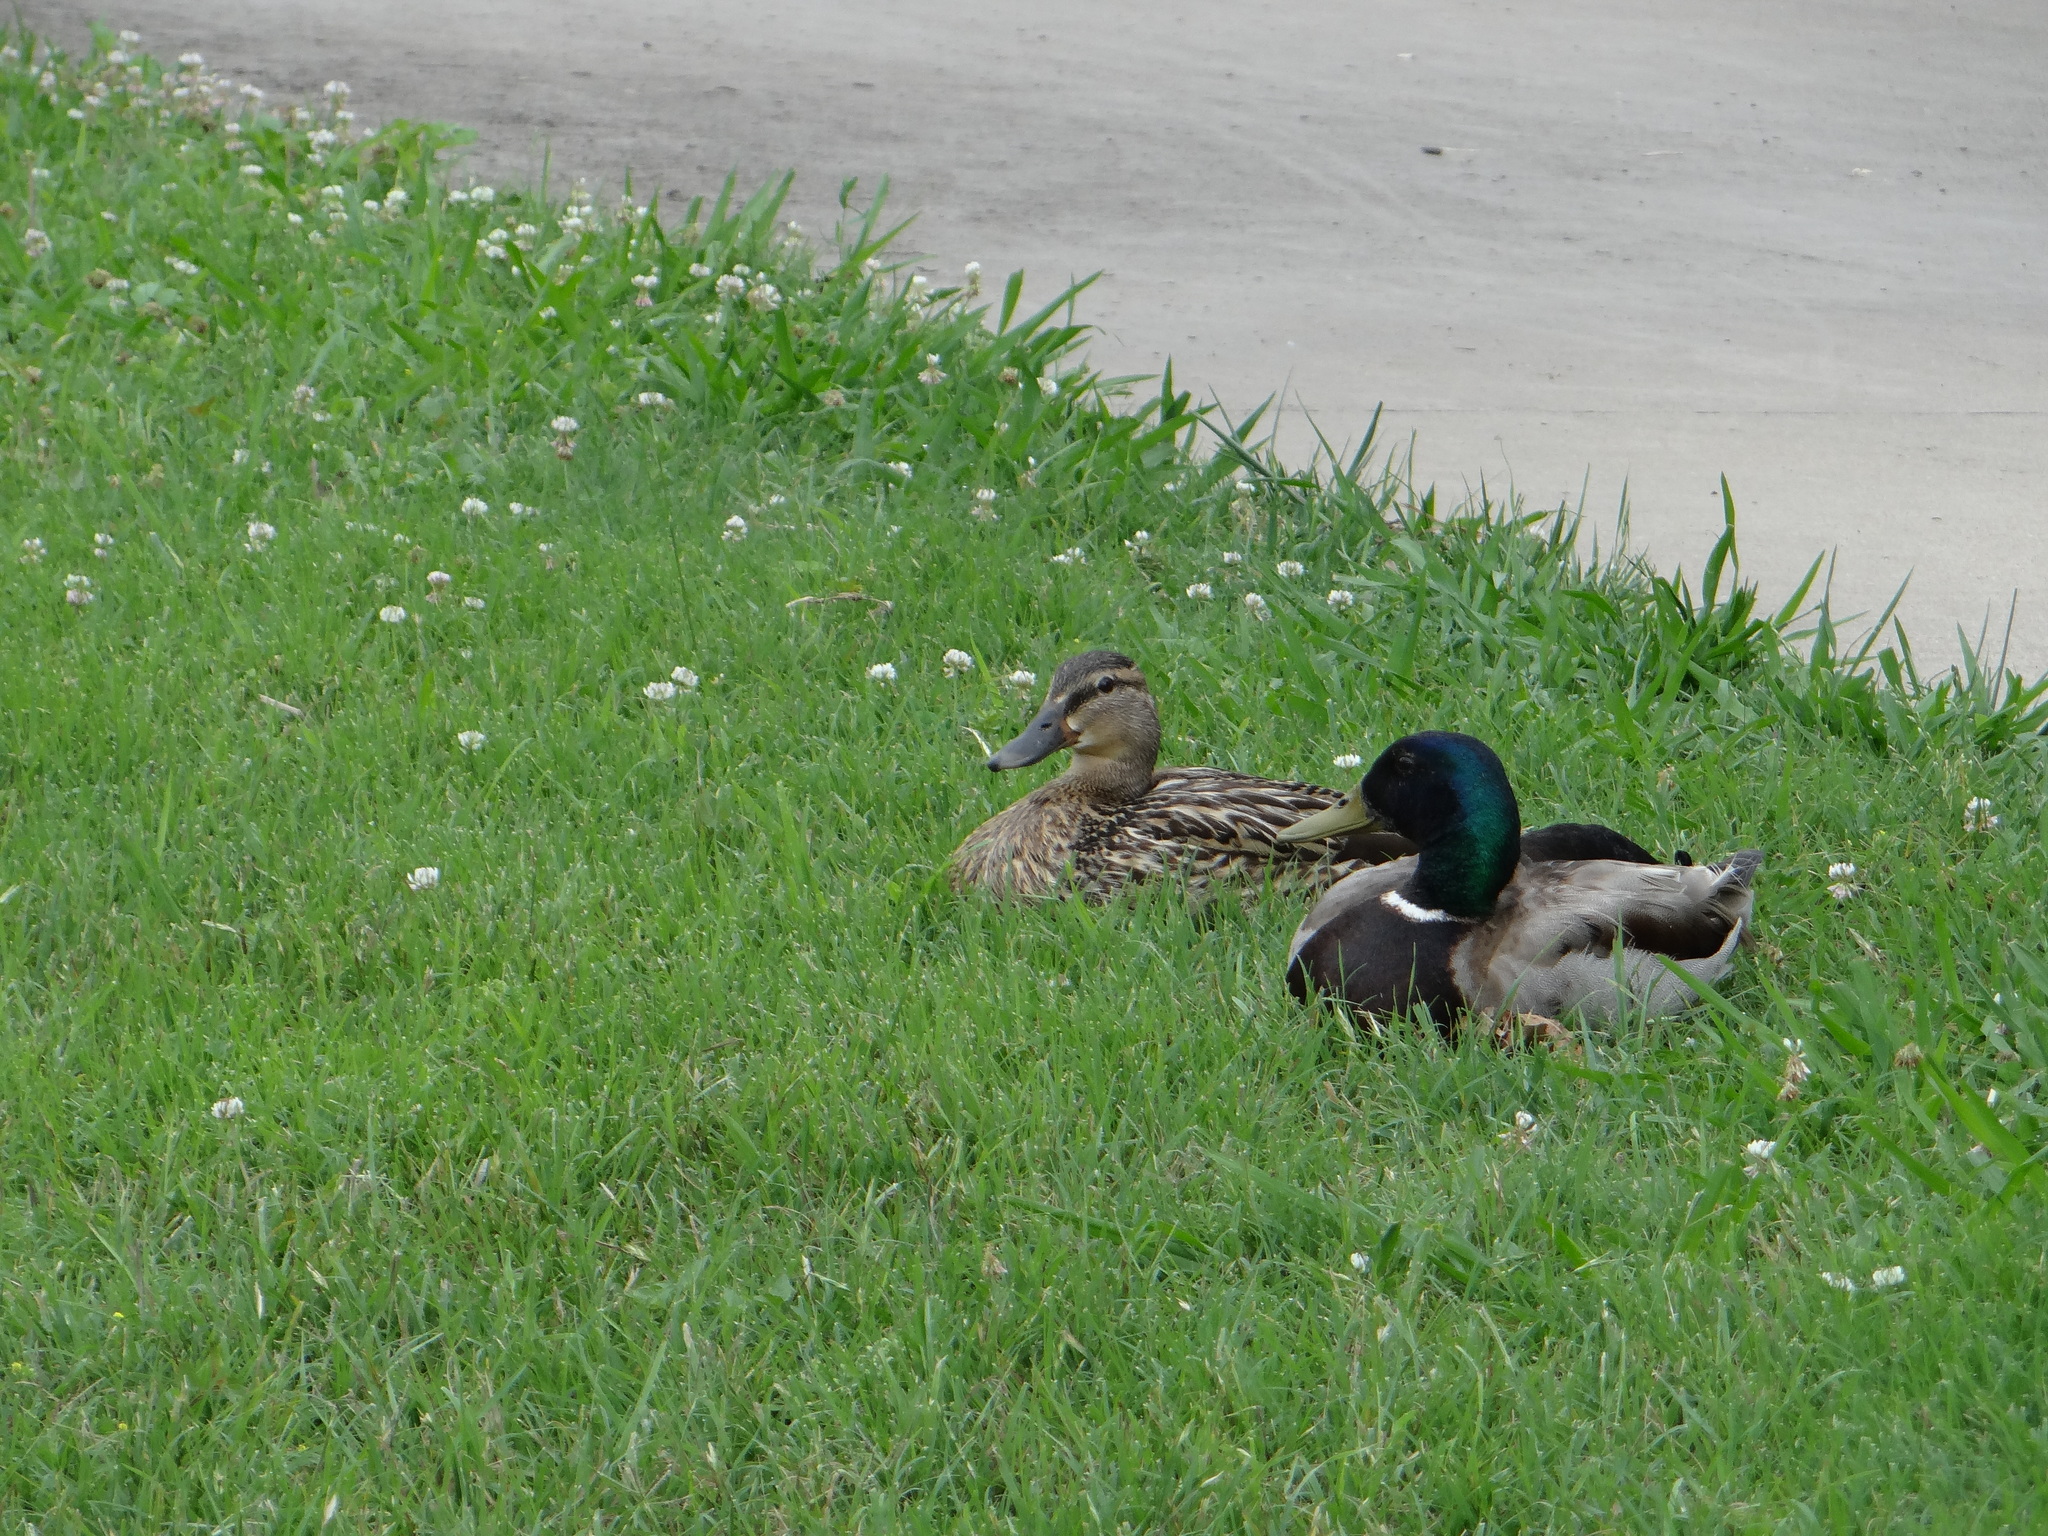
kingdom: Animalia
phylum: Chordata
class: Aves
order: Anseriformes
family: Anatidae
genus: Anas
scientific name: Anas platyrhynchos
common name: Mallard
